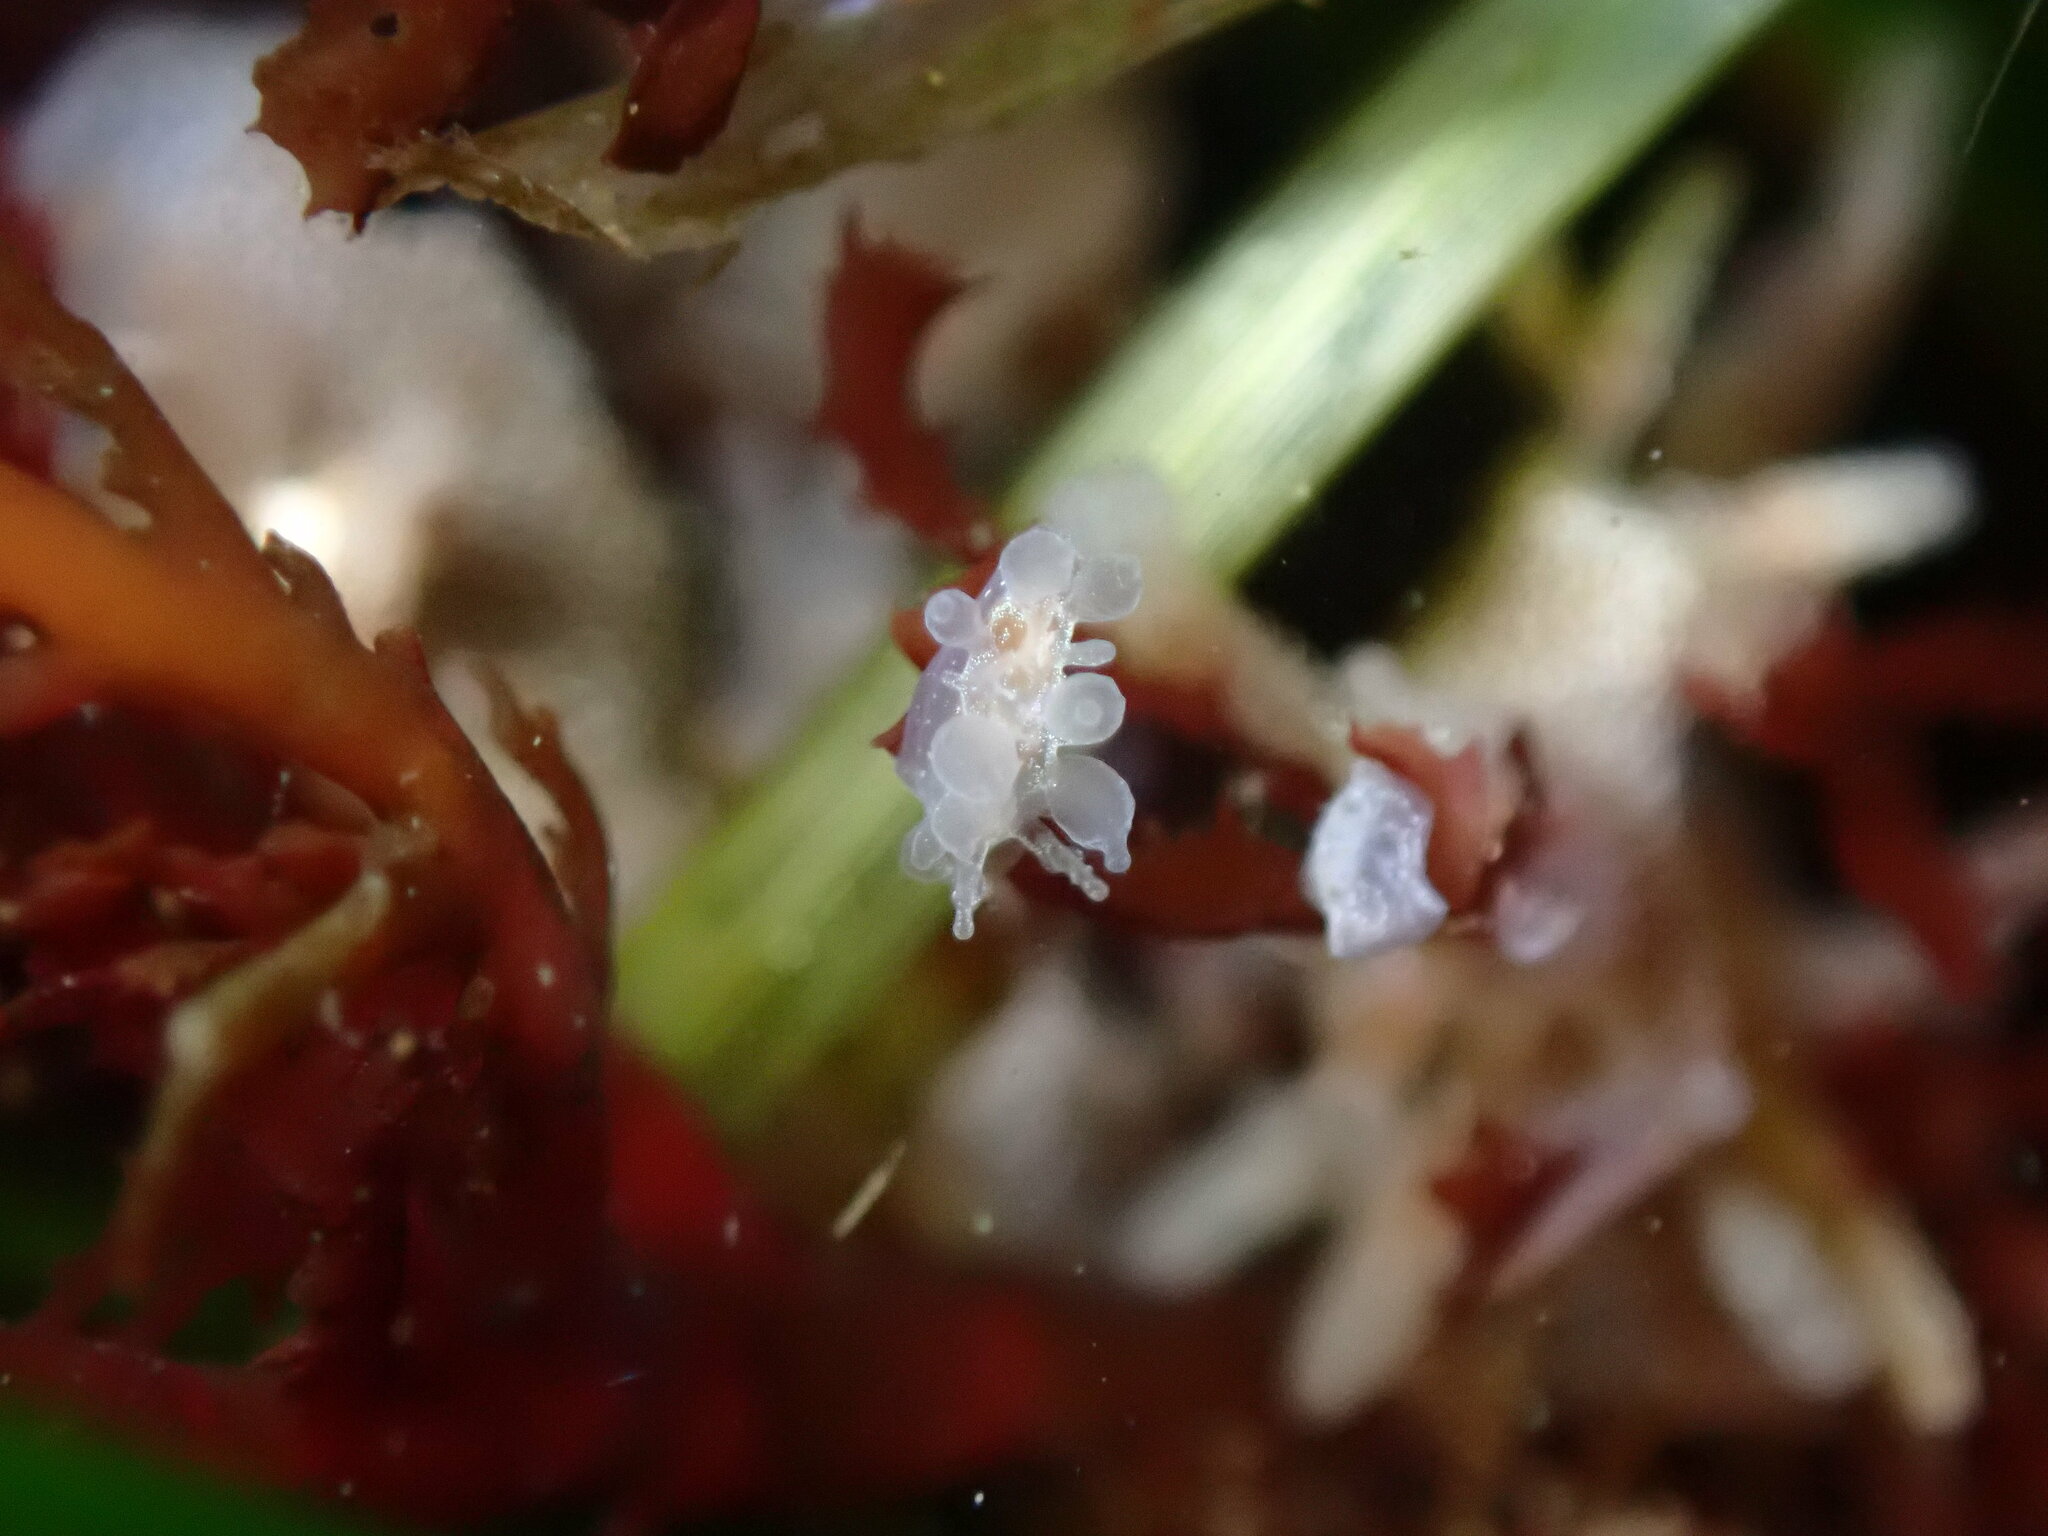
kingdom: Animalia
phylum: Mollusca
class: Gastropoda
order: Nudibranchia
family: Dironidae
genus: Dirona
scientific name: Dirona picta
